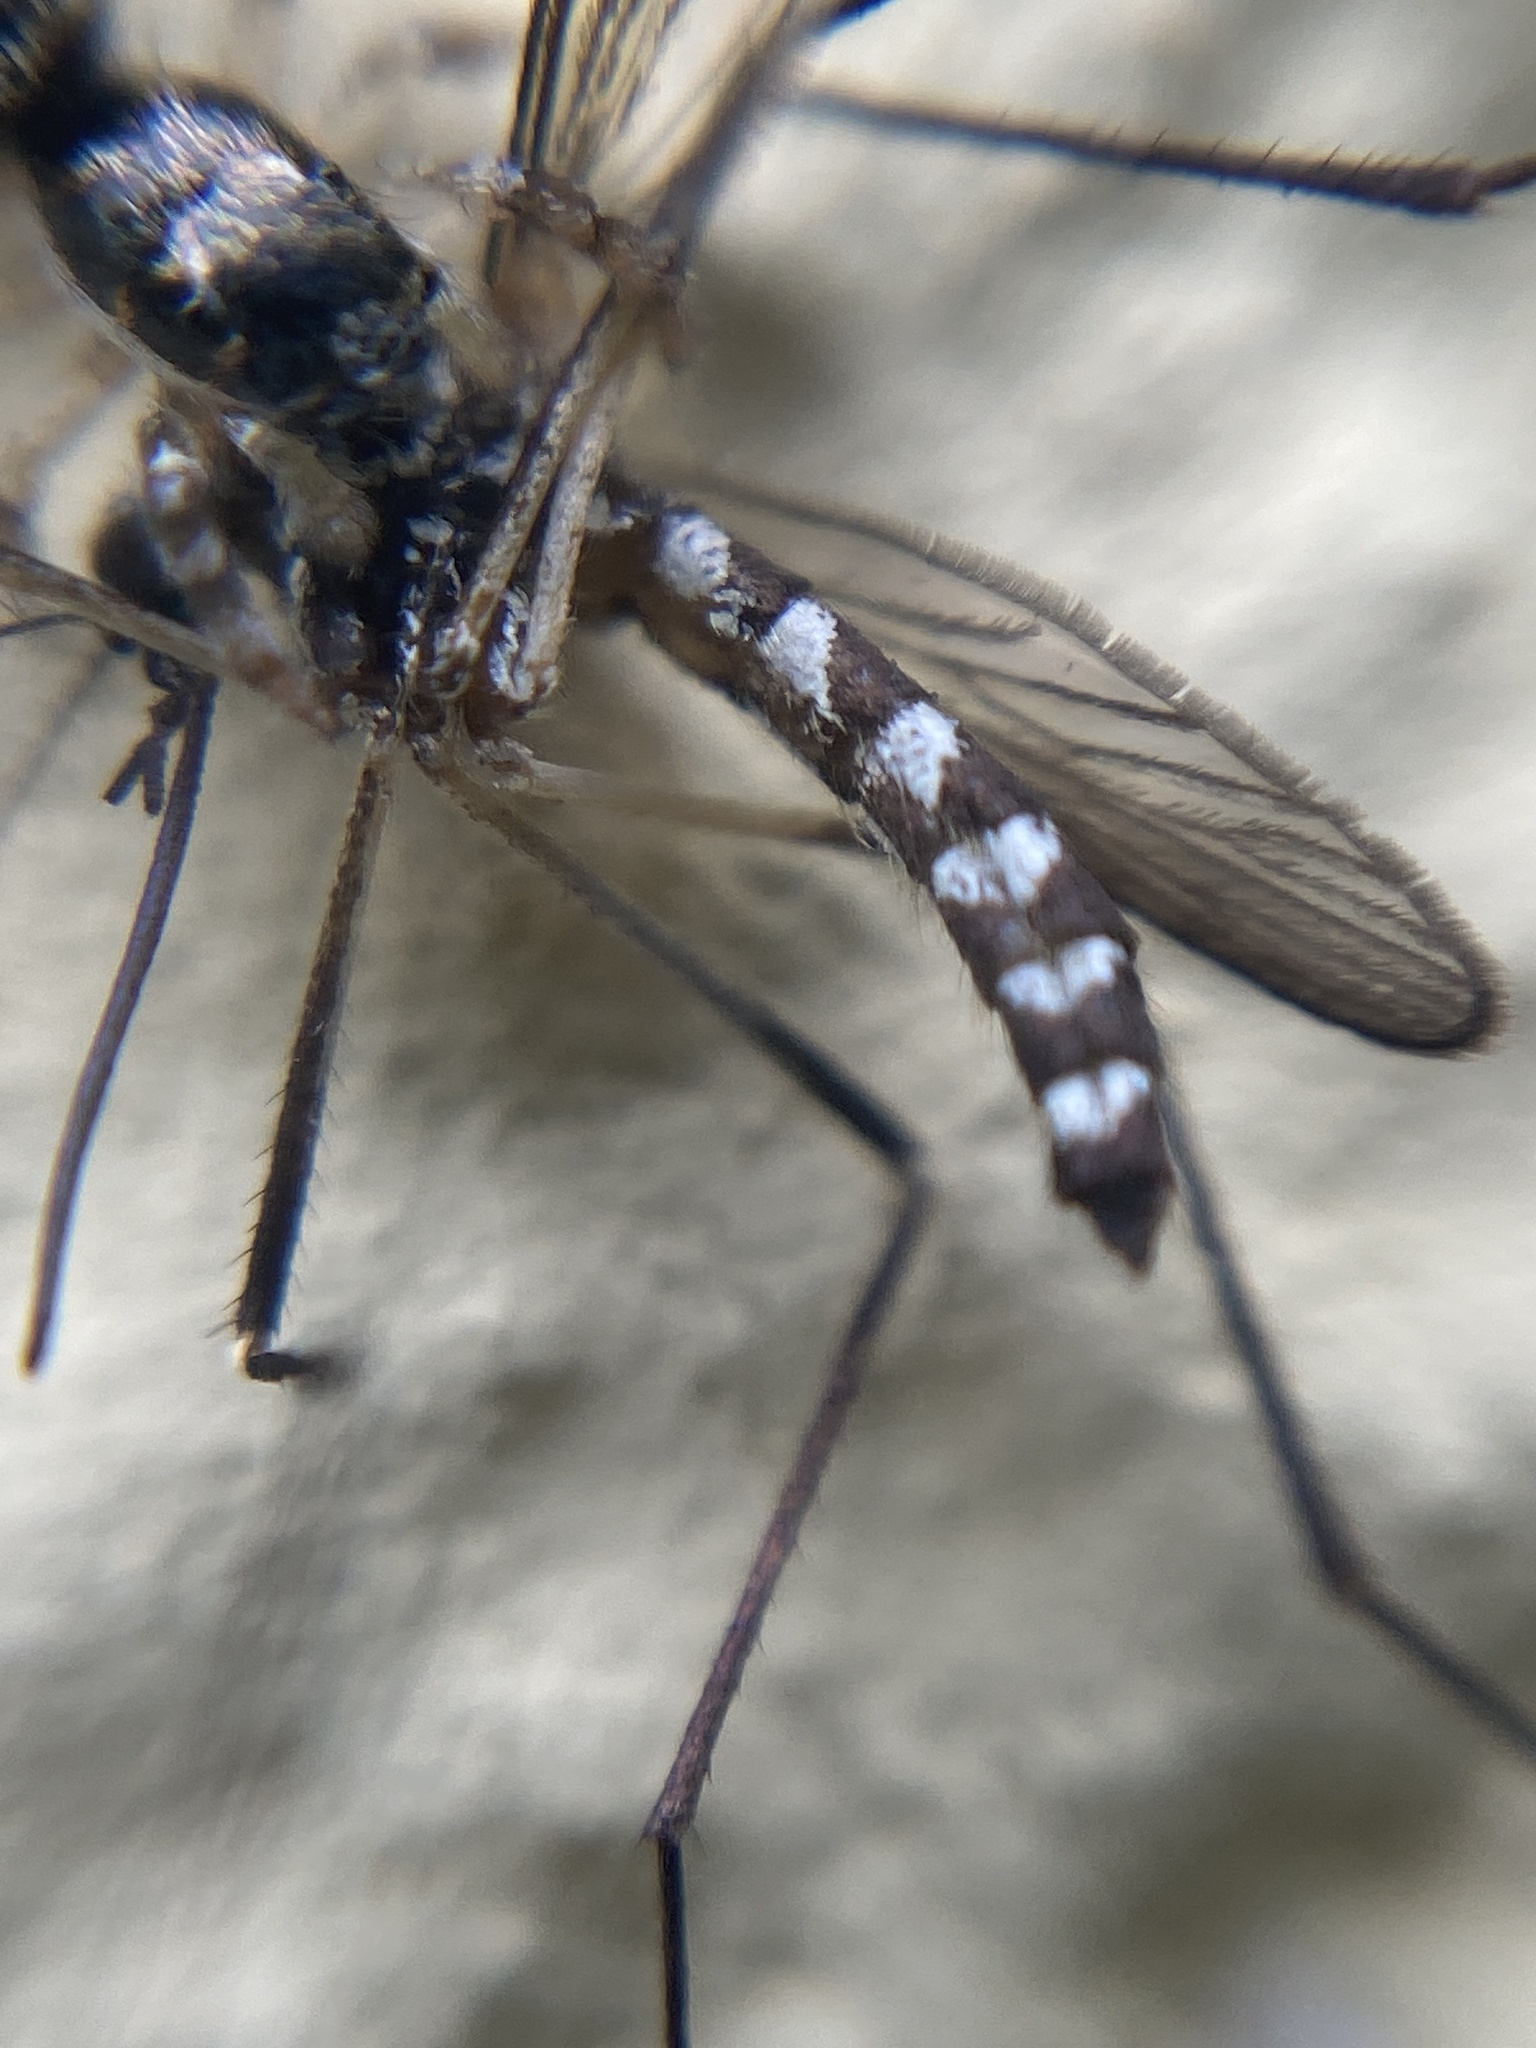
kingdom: Animalia
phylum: Arthropoda
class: Insecta
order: Diptera
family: Culicidae
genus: Aedes
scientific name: Aedes geniculatus
